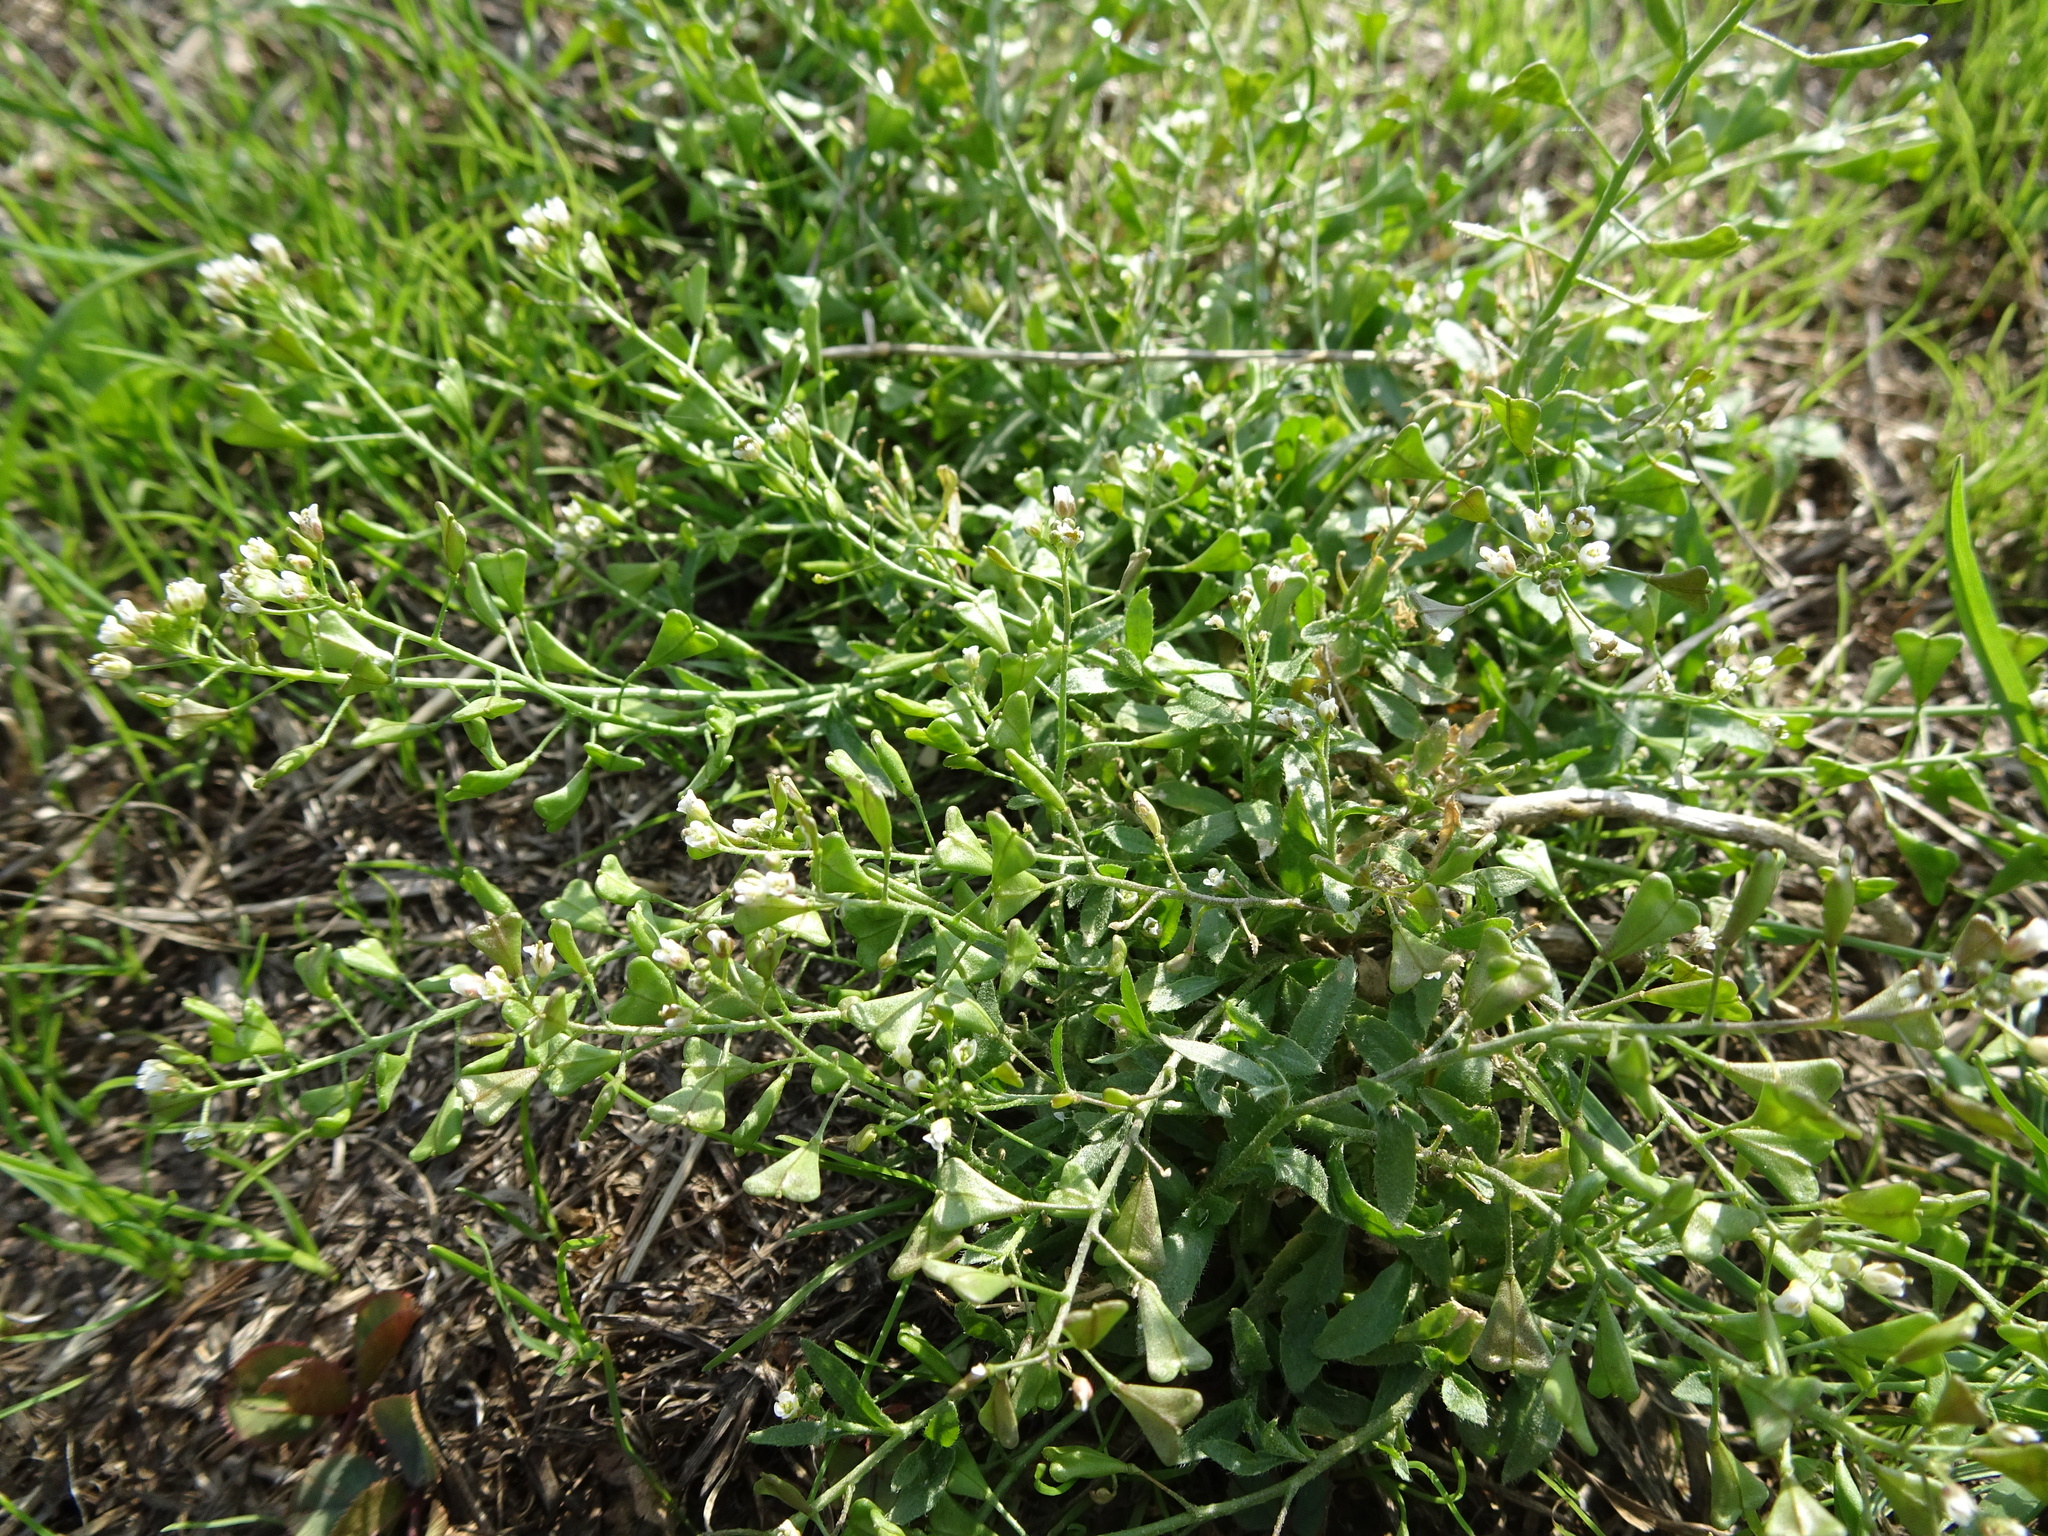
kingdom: Plantae
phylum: Tracheophyta
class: Magnoliopsida
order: Brassicales
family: Brassicaceae
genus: Capsella
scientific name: Capsella bursa-pastoris
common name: Shepherd's purse
